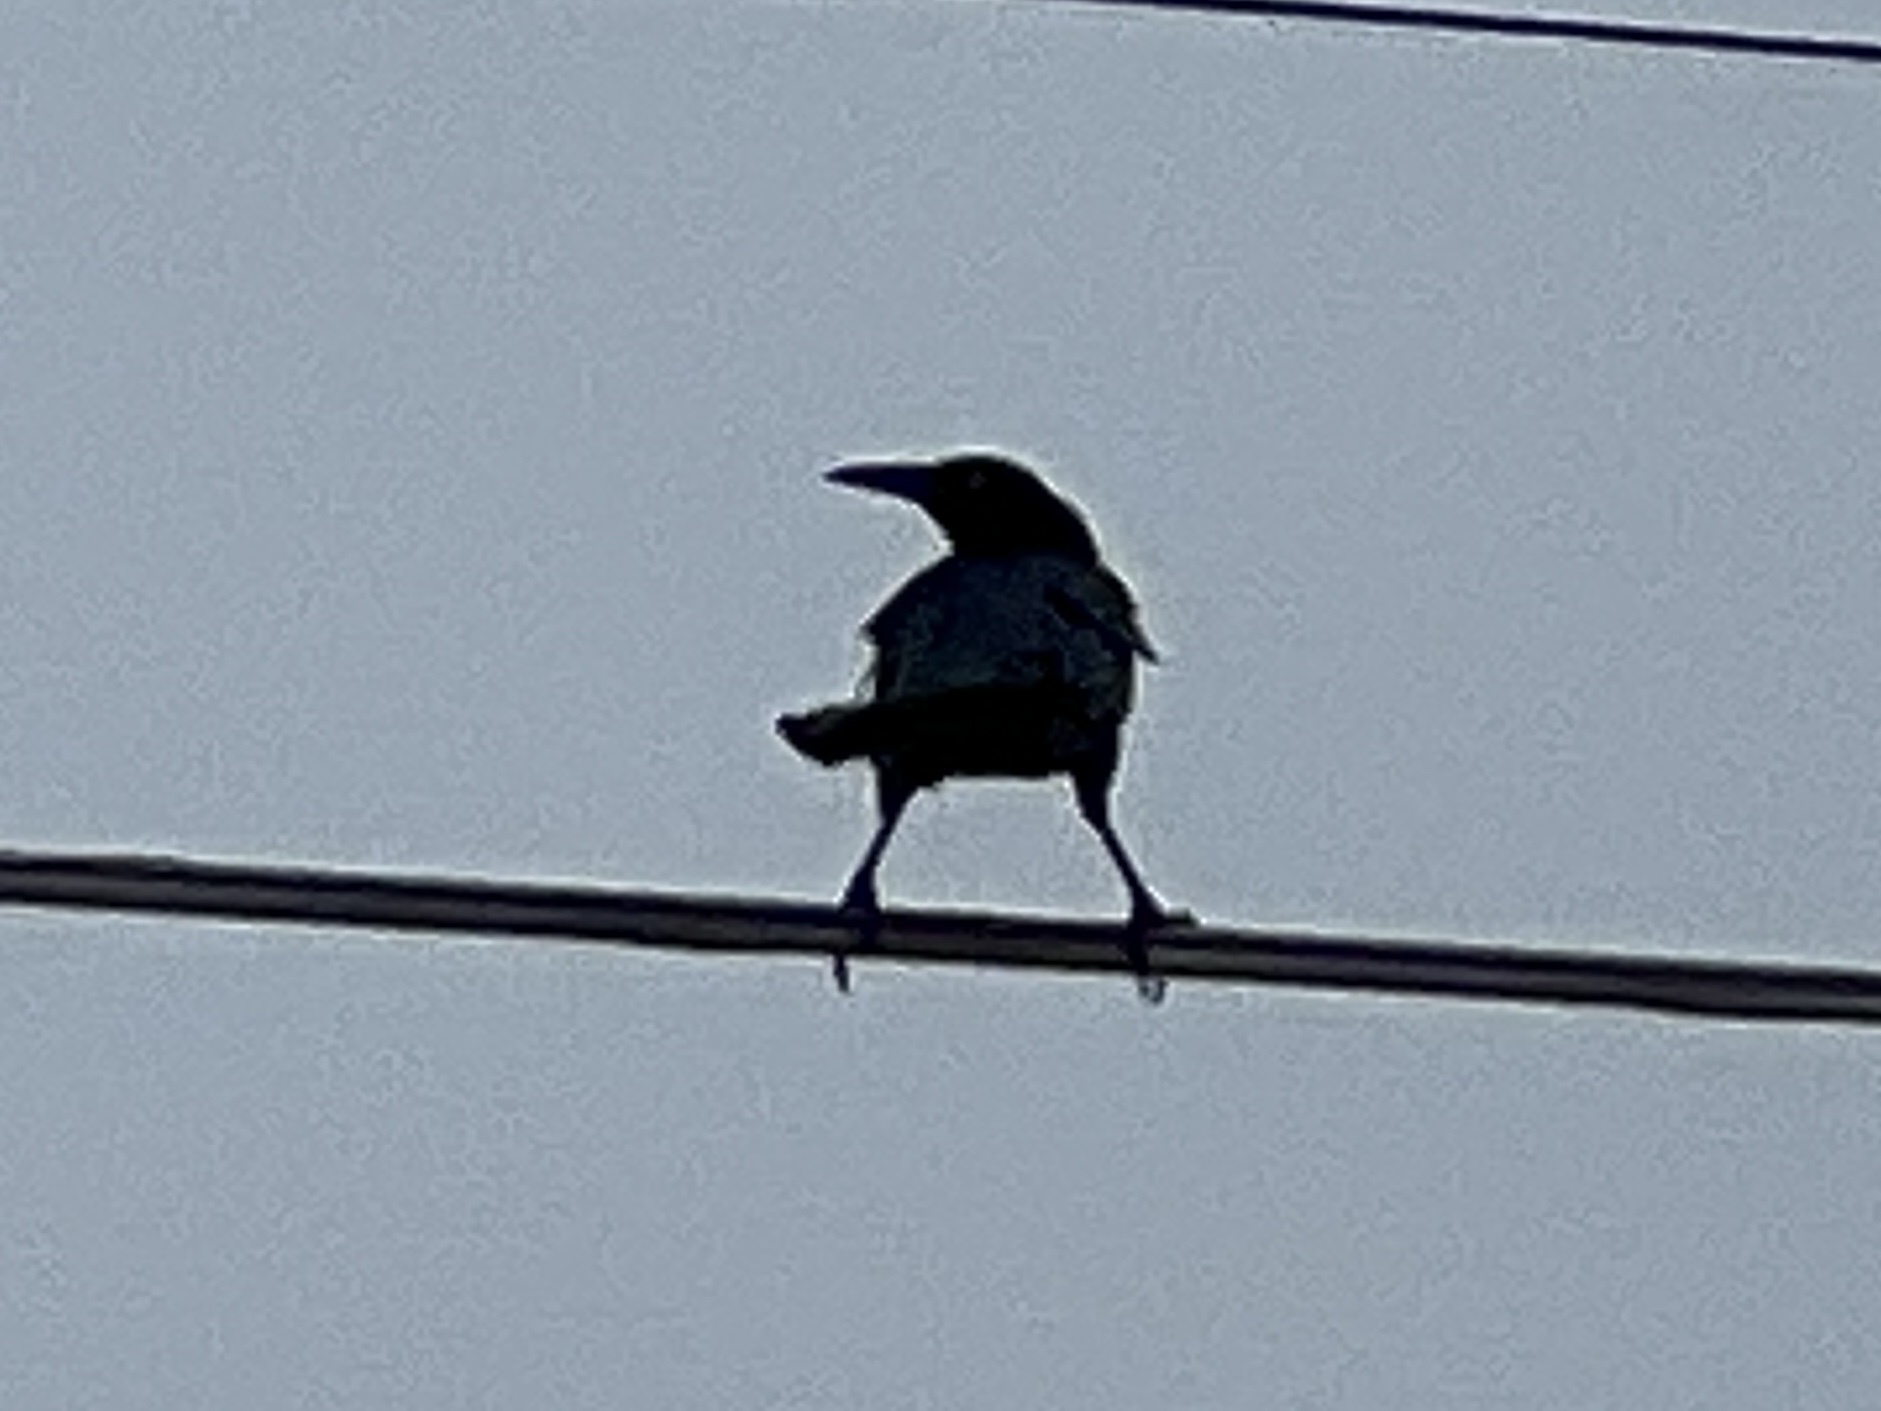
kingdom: Animalia
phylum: Chordata
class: Aves
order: Passeriformes
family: Icteridae
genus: Quiscalus
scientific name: Quiscalus mexicanus
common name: Great-tailed grackle
